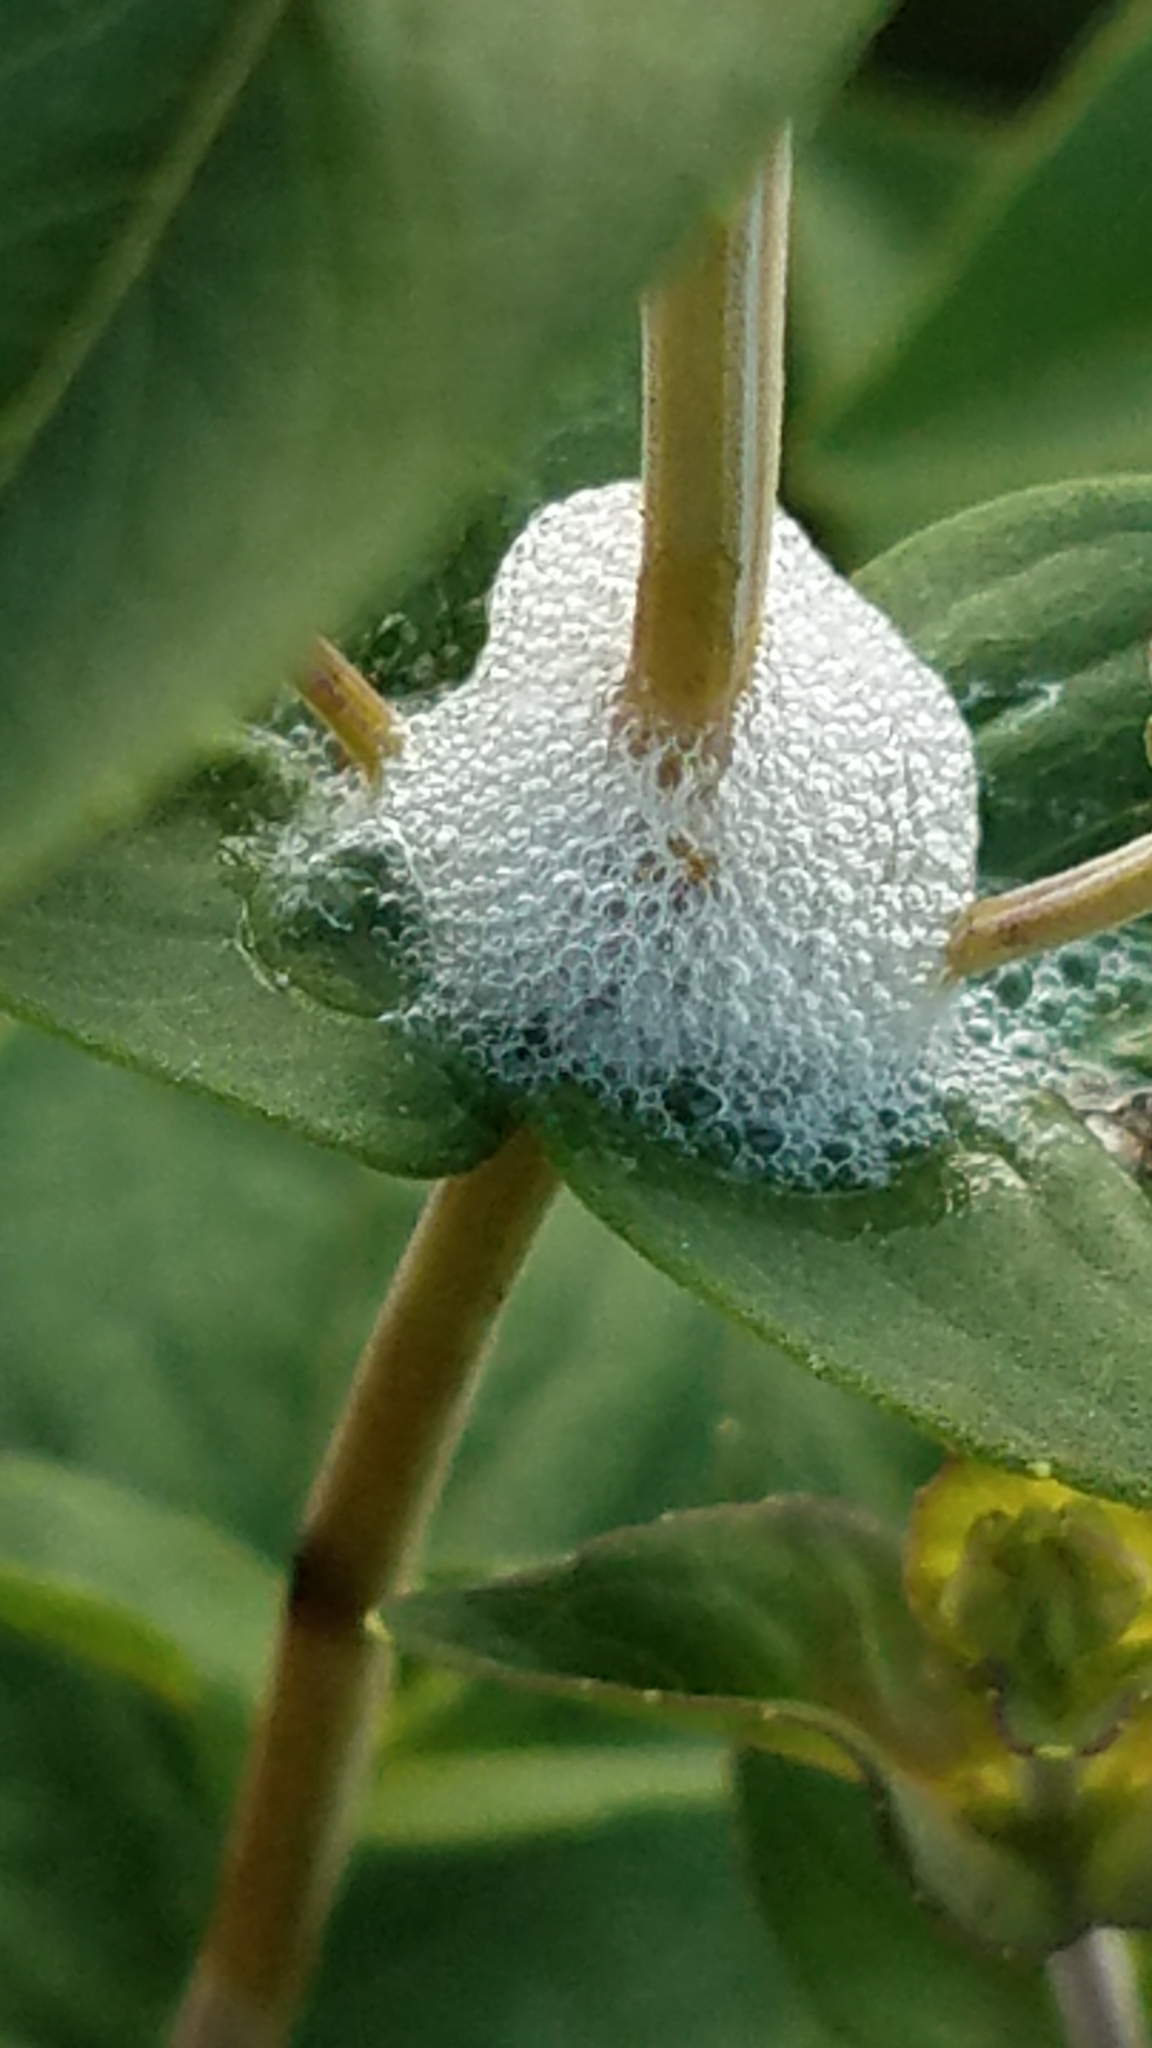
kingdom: Animalia
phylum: Arthropoda
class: Insecta
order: Hemiptera
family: Aphrophoridae
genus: Philaenus
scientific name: Philaenus spumarius
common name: Meadow spittlebug
